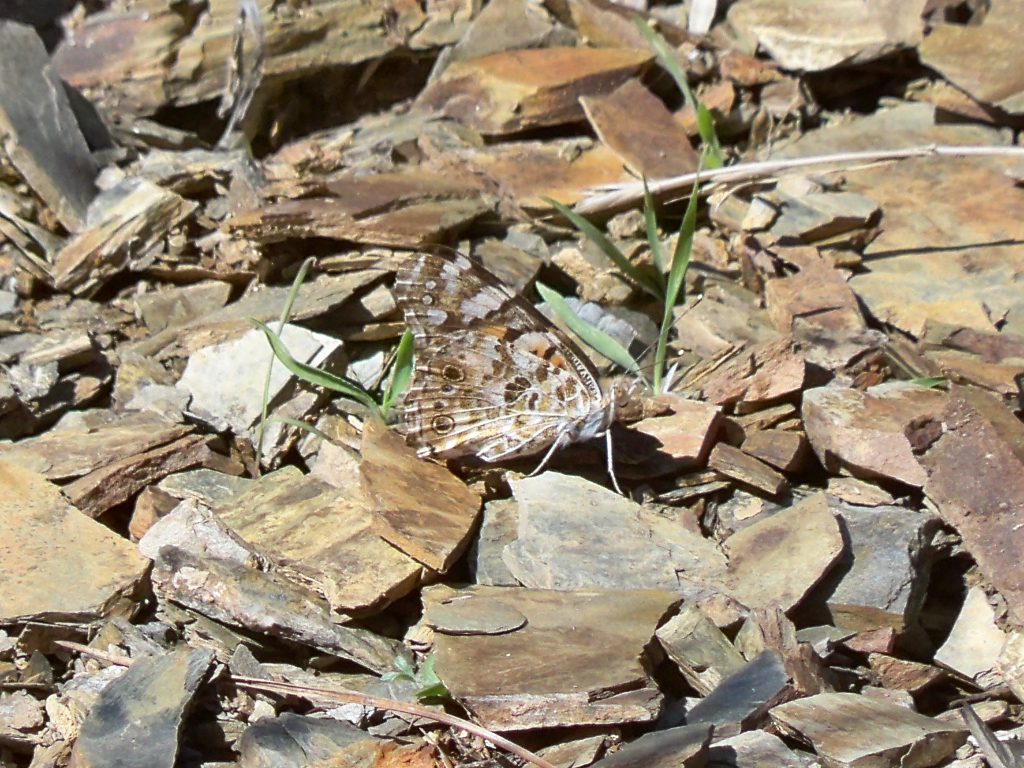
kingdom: Animalia
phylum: Arthropoda
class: Insecta
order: Lepidoptera
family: Nymphalidae
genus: Vanessa
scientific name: Vanessa cardui
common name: Painted lady
